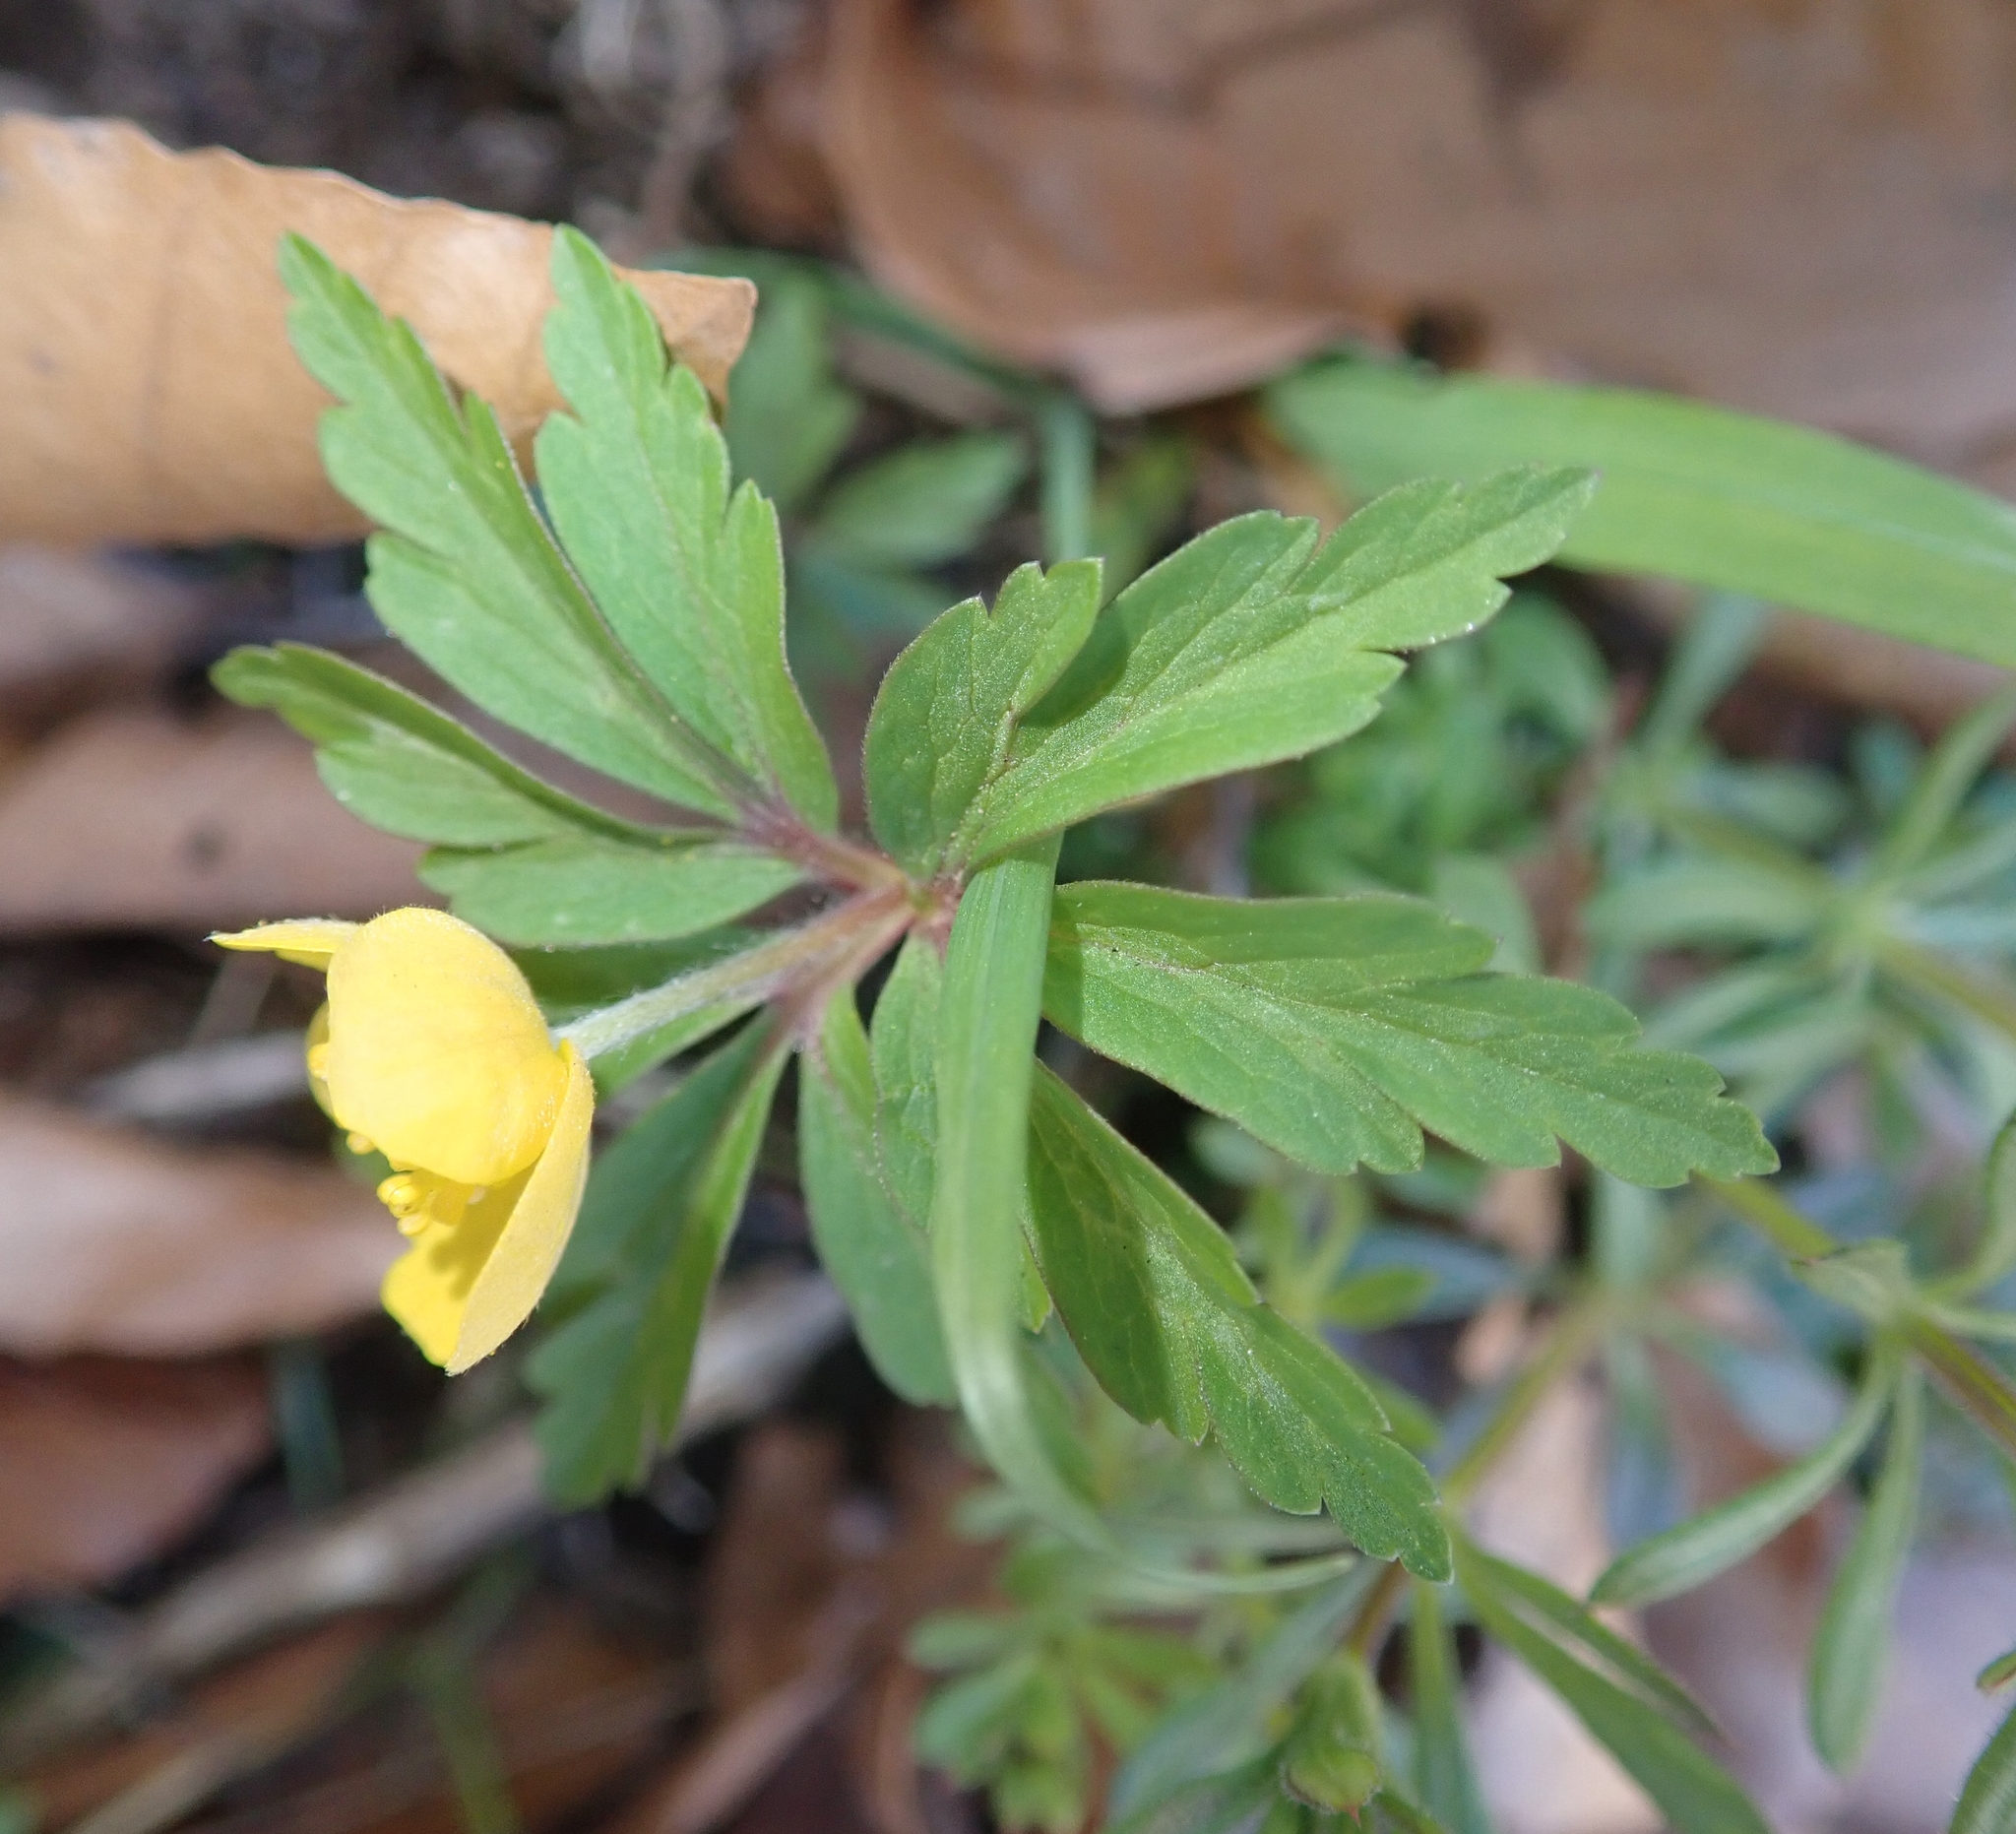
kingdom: Plantae
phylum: Tracheophyta
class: Magnoliopsida
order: Ranunculales
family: Ranunculaceae
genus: Anemone
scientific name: Anemone ranunculoides
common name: Yellow anemone
